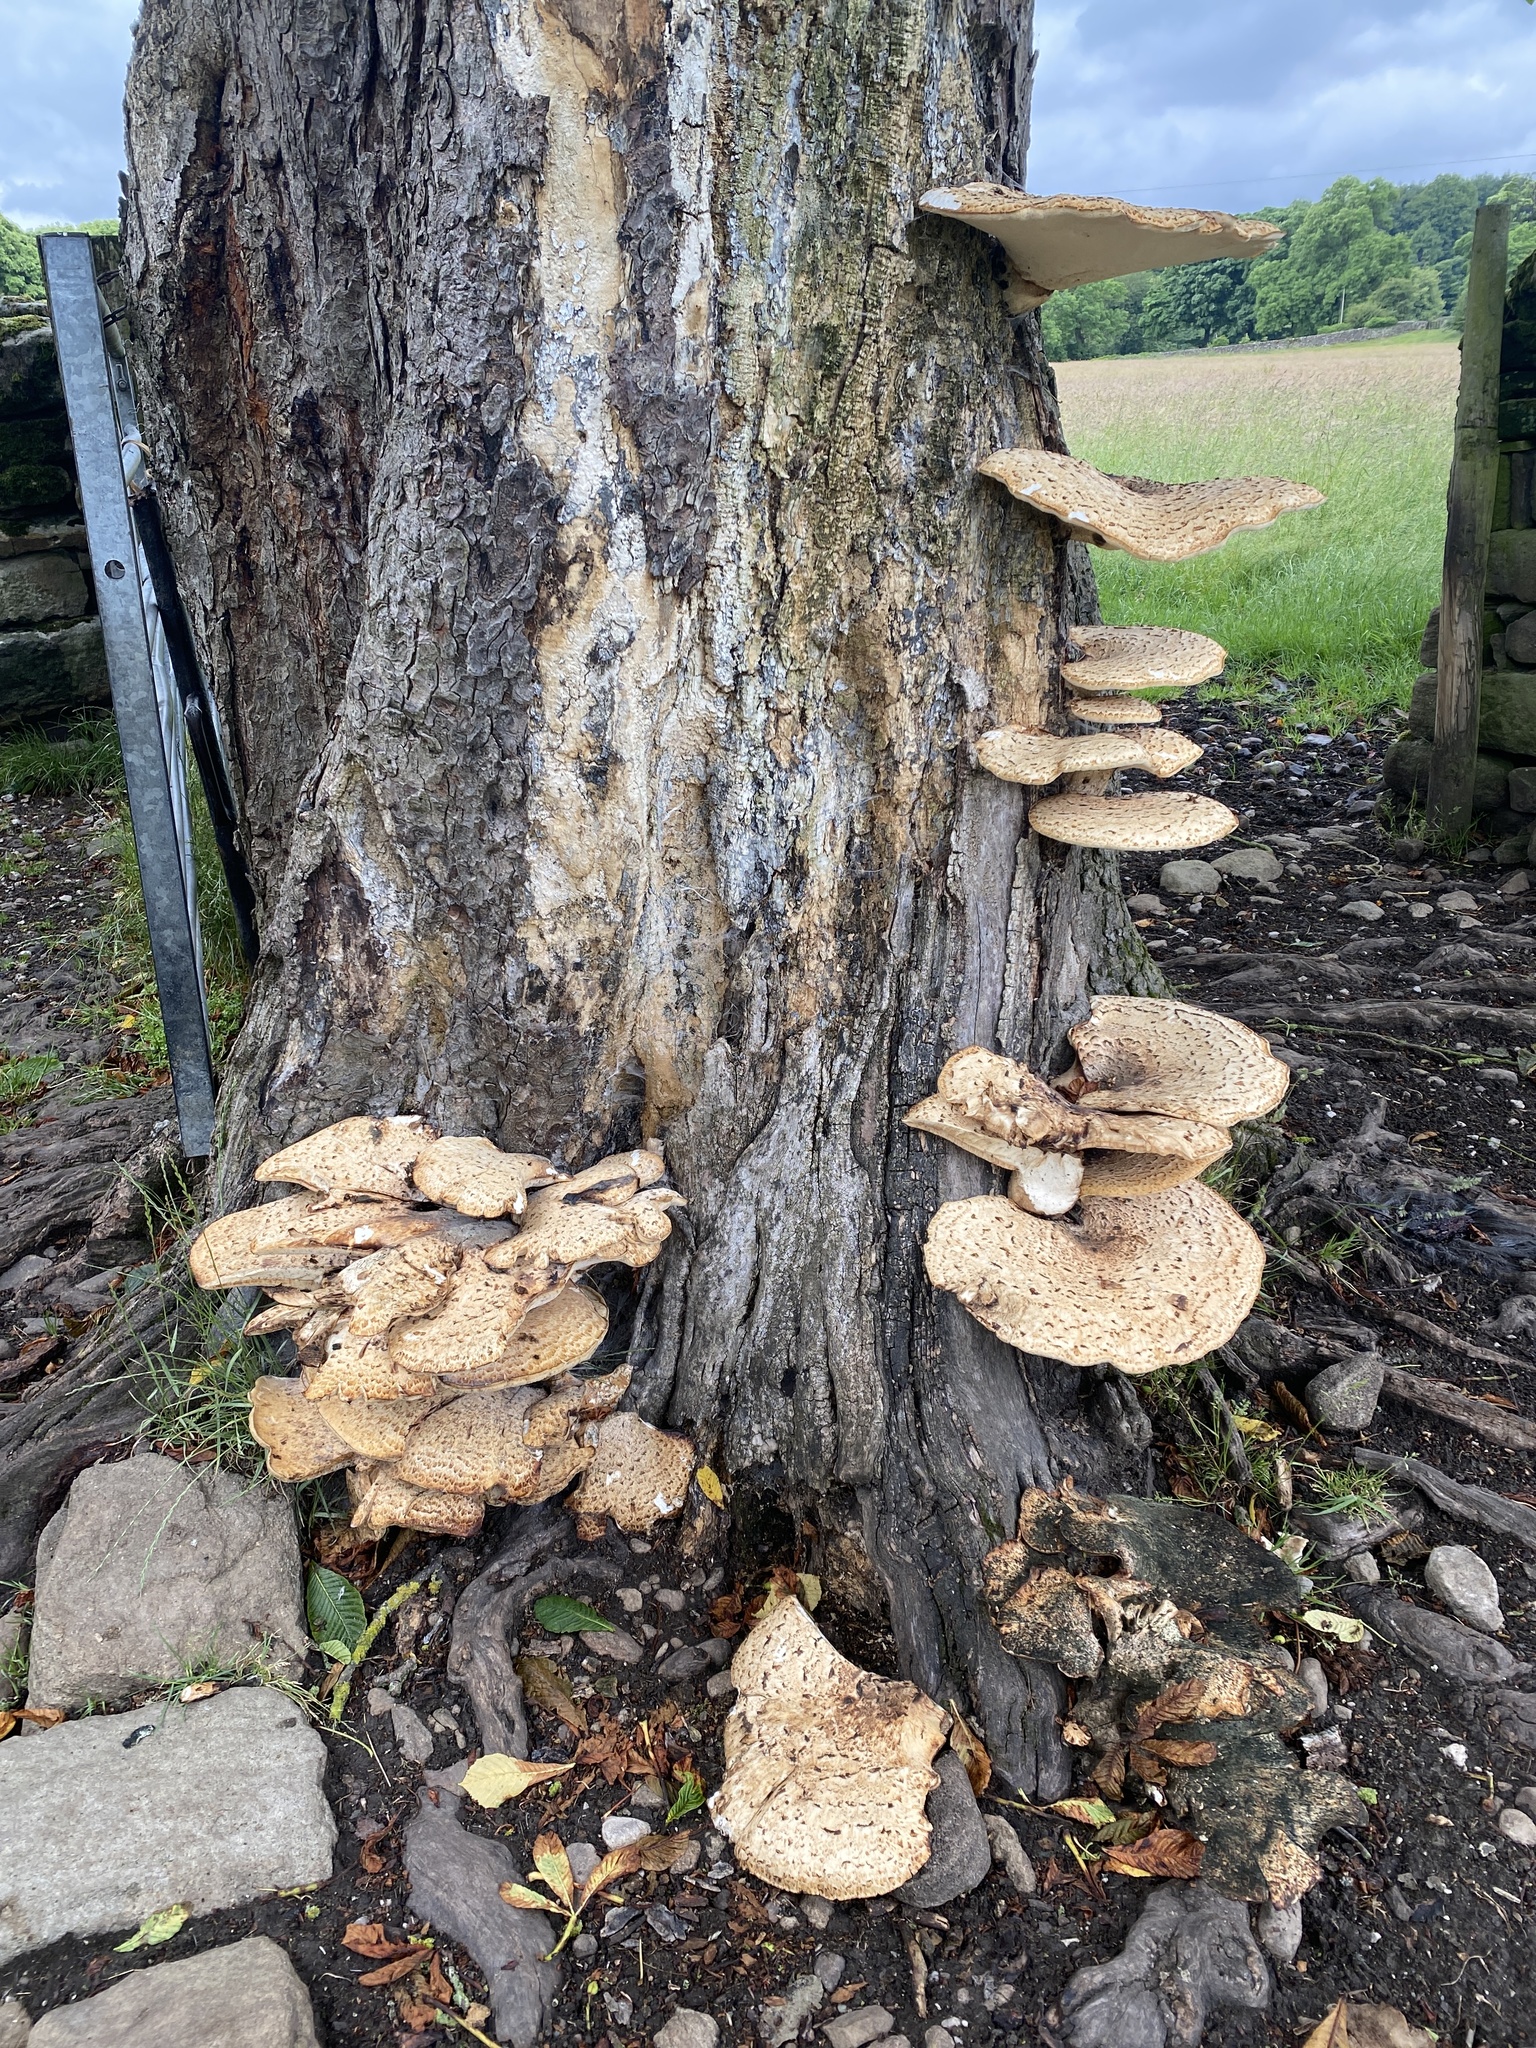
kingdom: Fungi
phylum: Basidiomycota
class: Agaricomycetes
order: Polyporales
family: Polyporaceae
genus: Cerioporus
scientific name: Cerioporus squamosus
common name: Dryad's saddle
